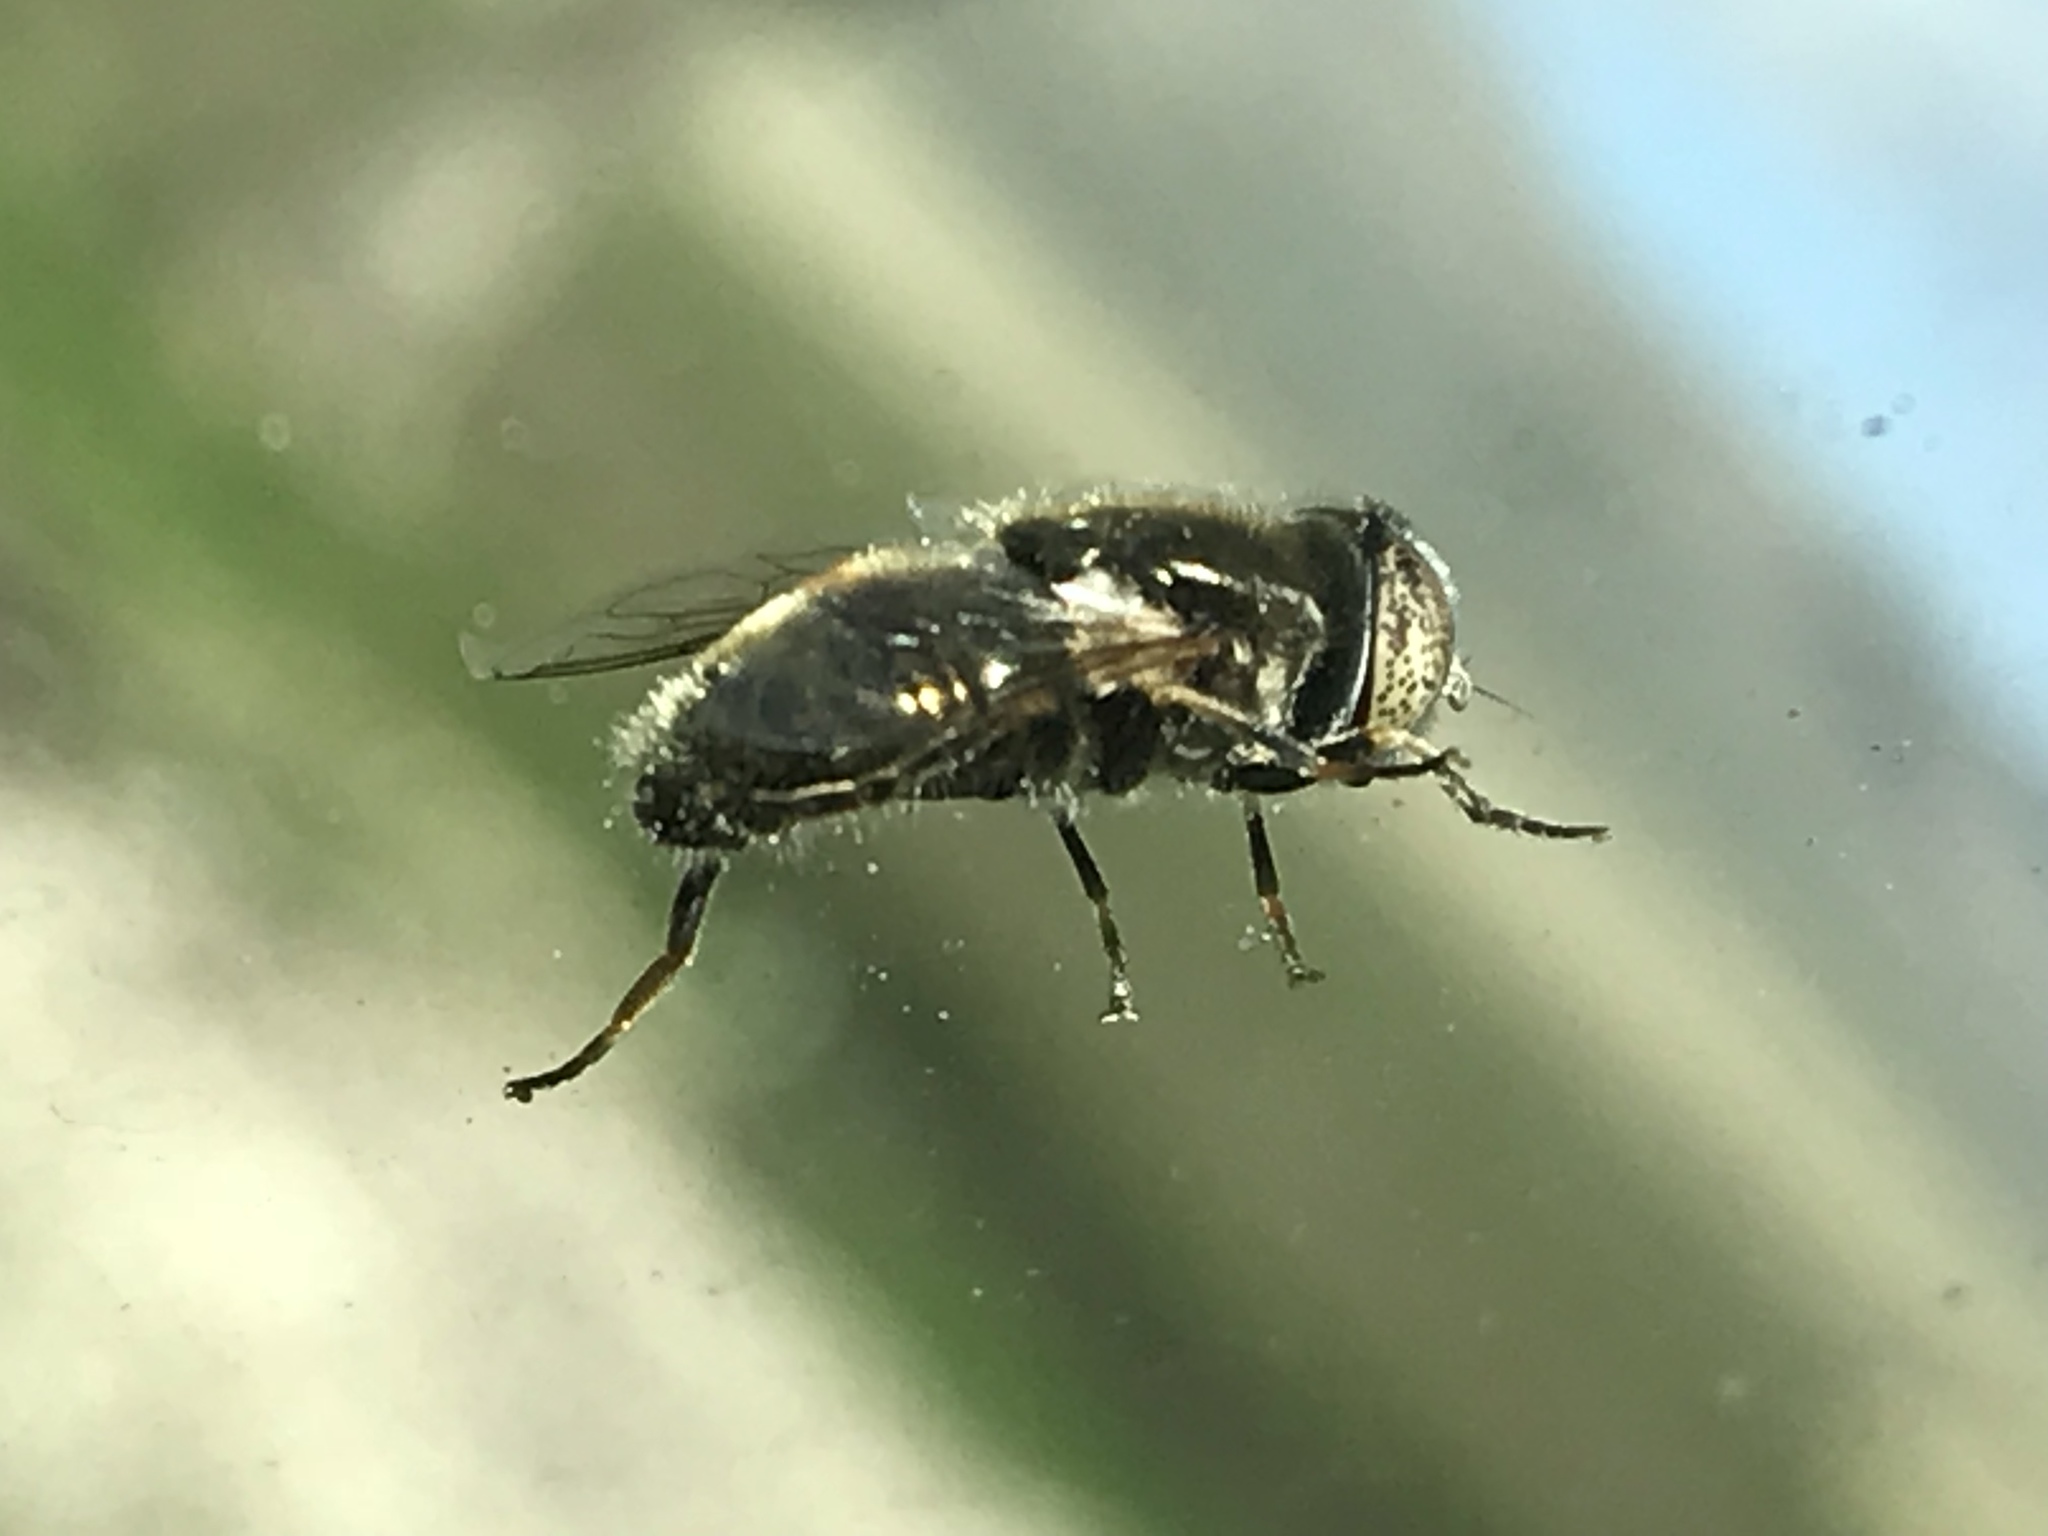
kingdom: Animalia
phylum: Arthropoda
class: Insecta
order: Diptera
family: Syrphidae
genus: Eristalinus
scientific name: Eristalinus aeneus
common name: Syrphid fly
